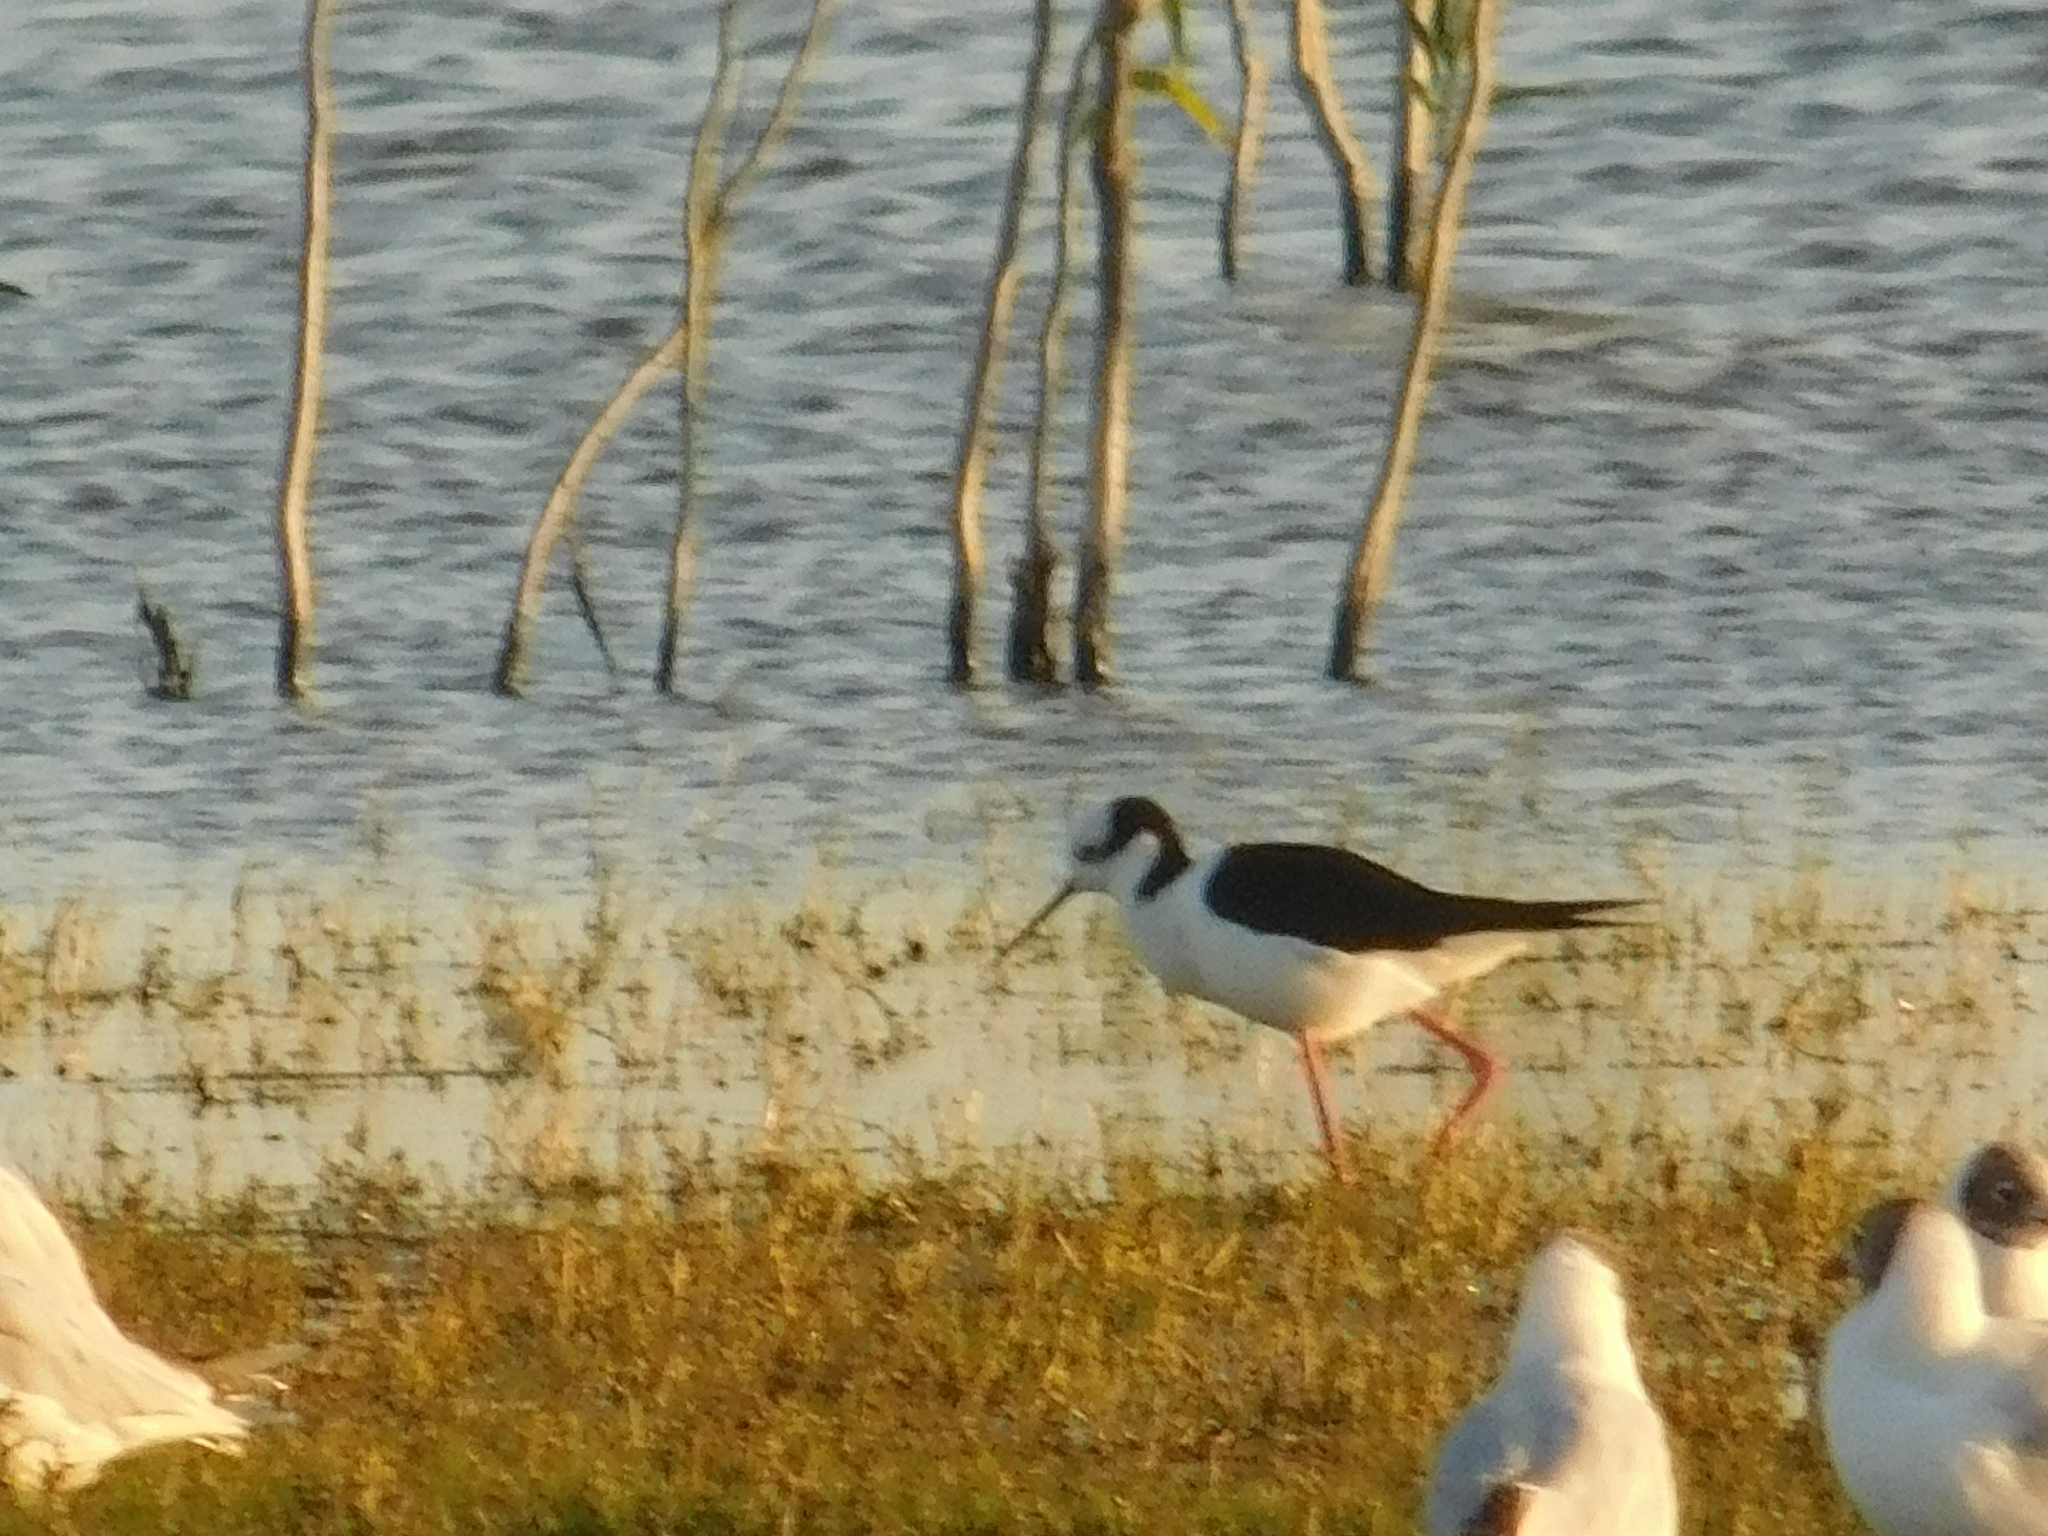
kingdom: Animalia
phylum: Chordata
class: Aves
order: Charadriiformes
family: Recurvirostridae
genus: Himantopus
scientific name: Himantopus mexicanus
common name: Black-necked stilt
